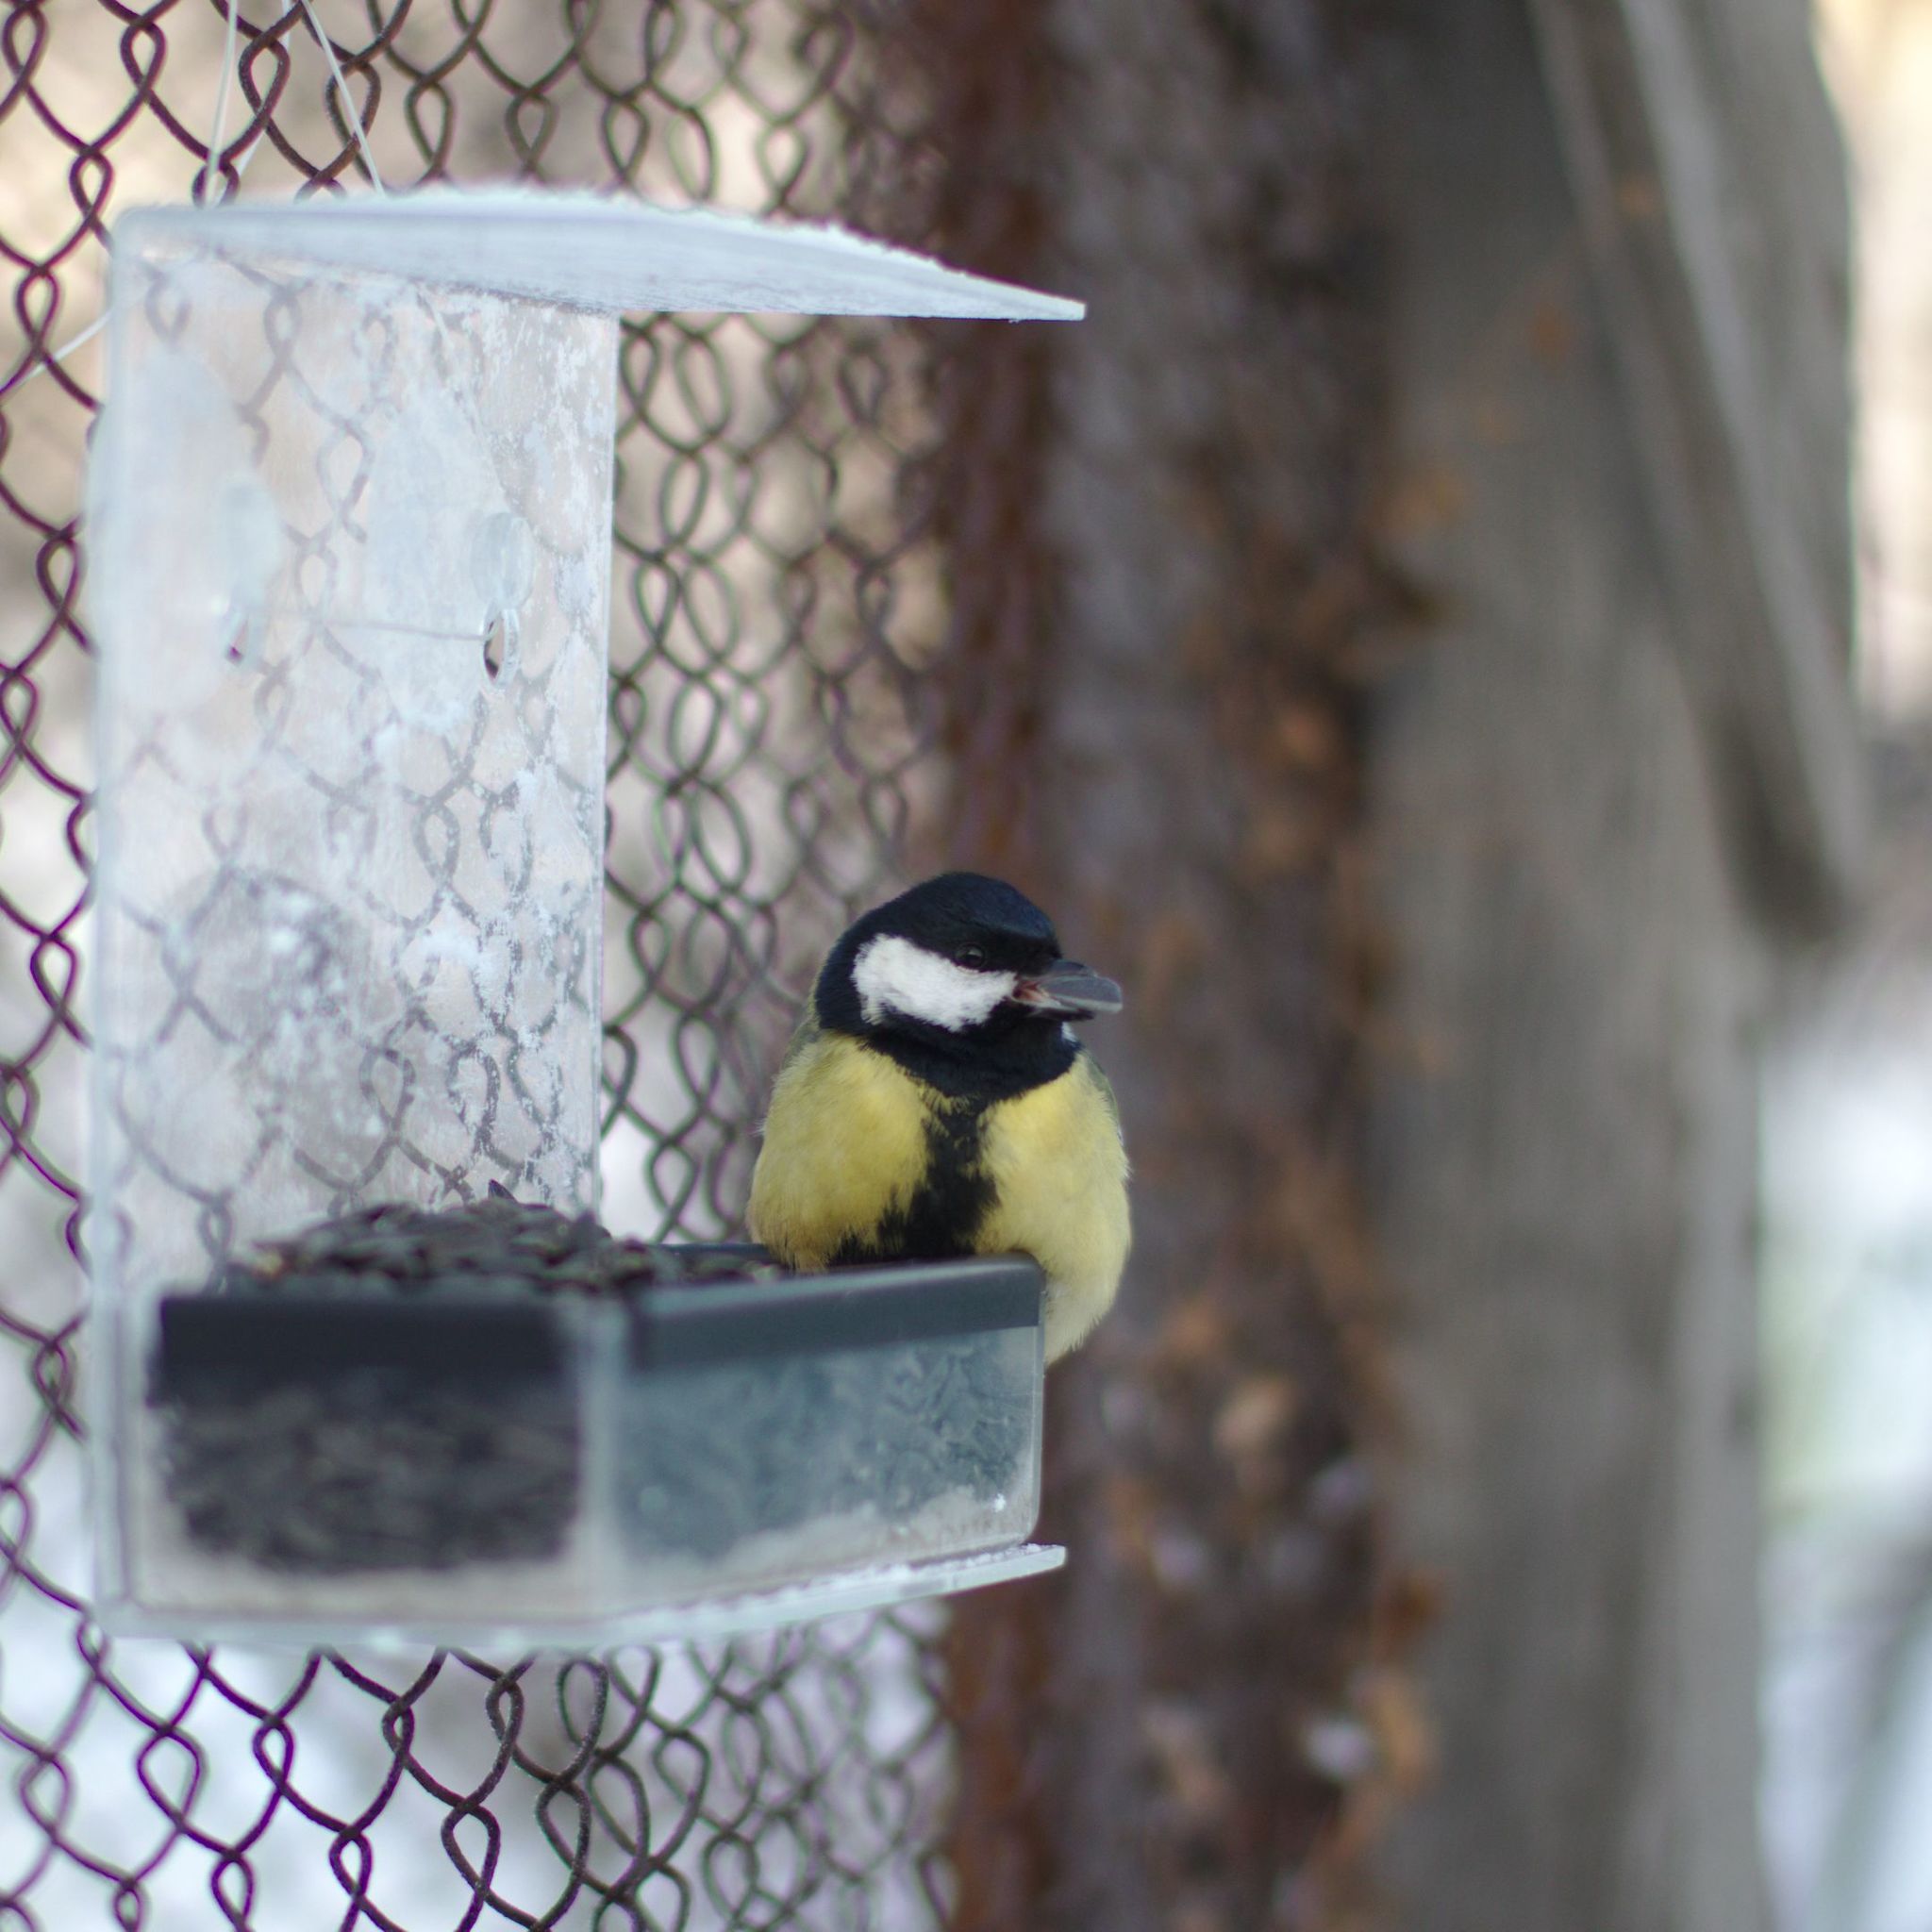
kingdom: Animalia
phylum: Chordata
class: Aves
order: Passeriformes
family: Paridae
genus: Parus
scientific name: Parus major
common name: Great tit
